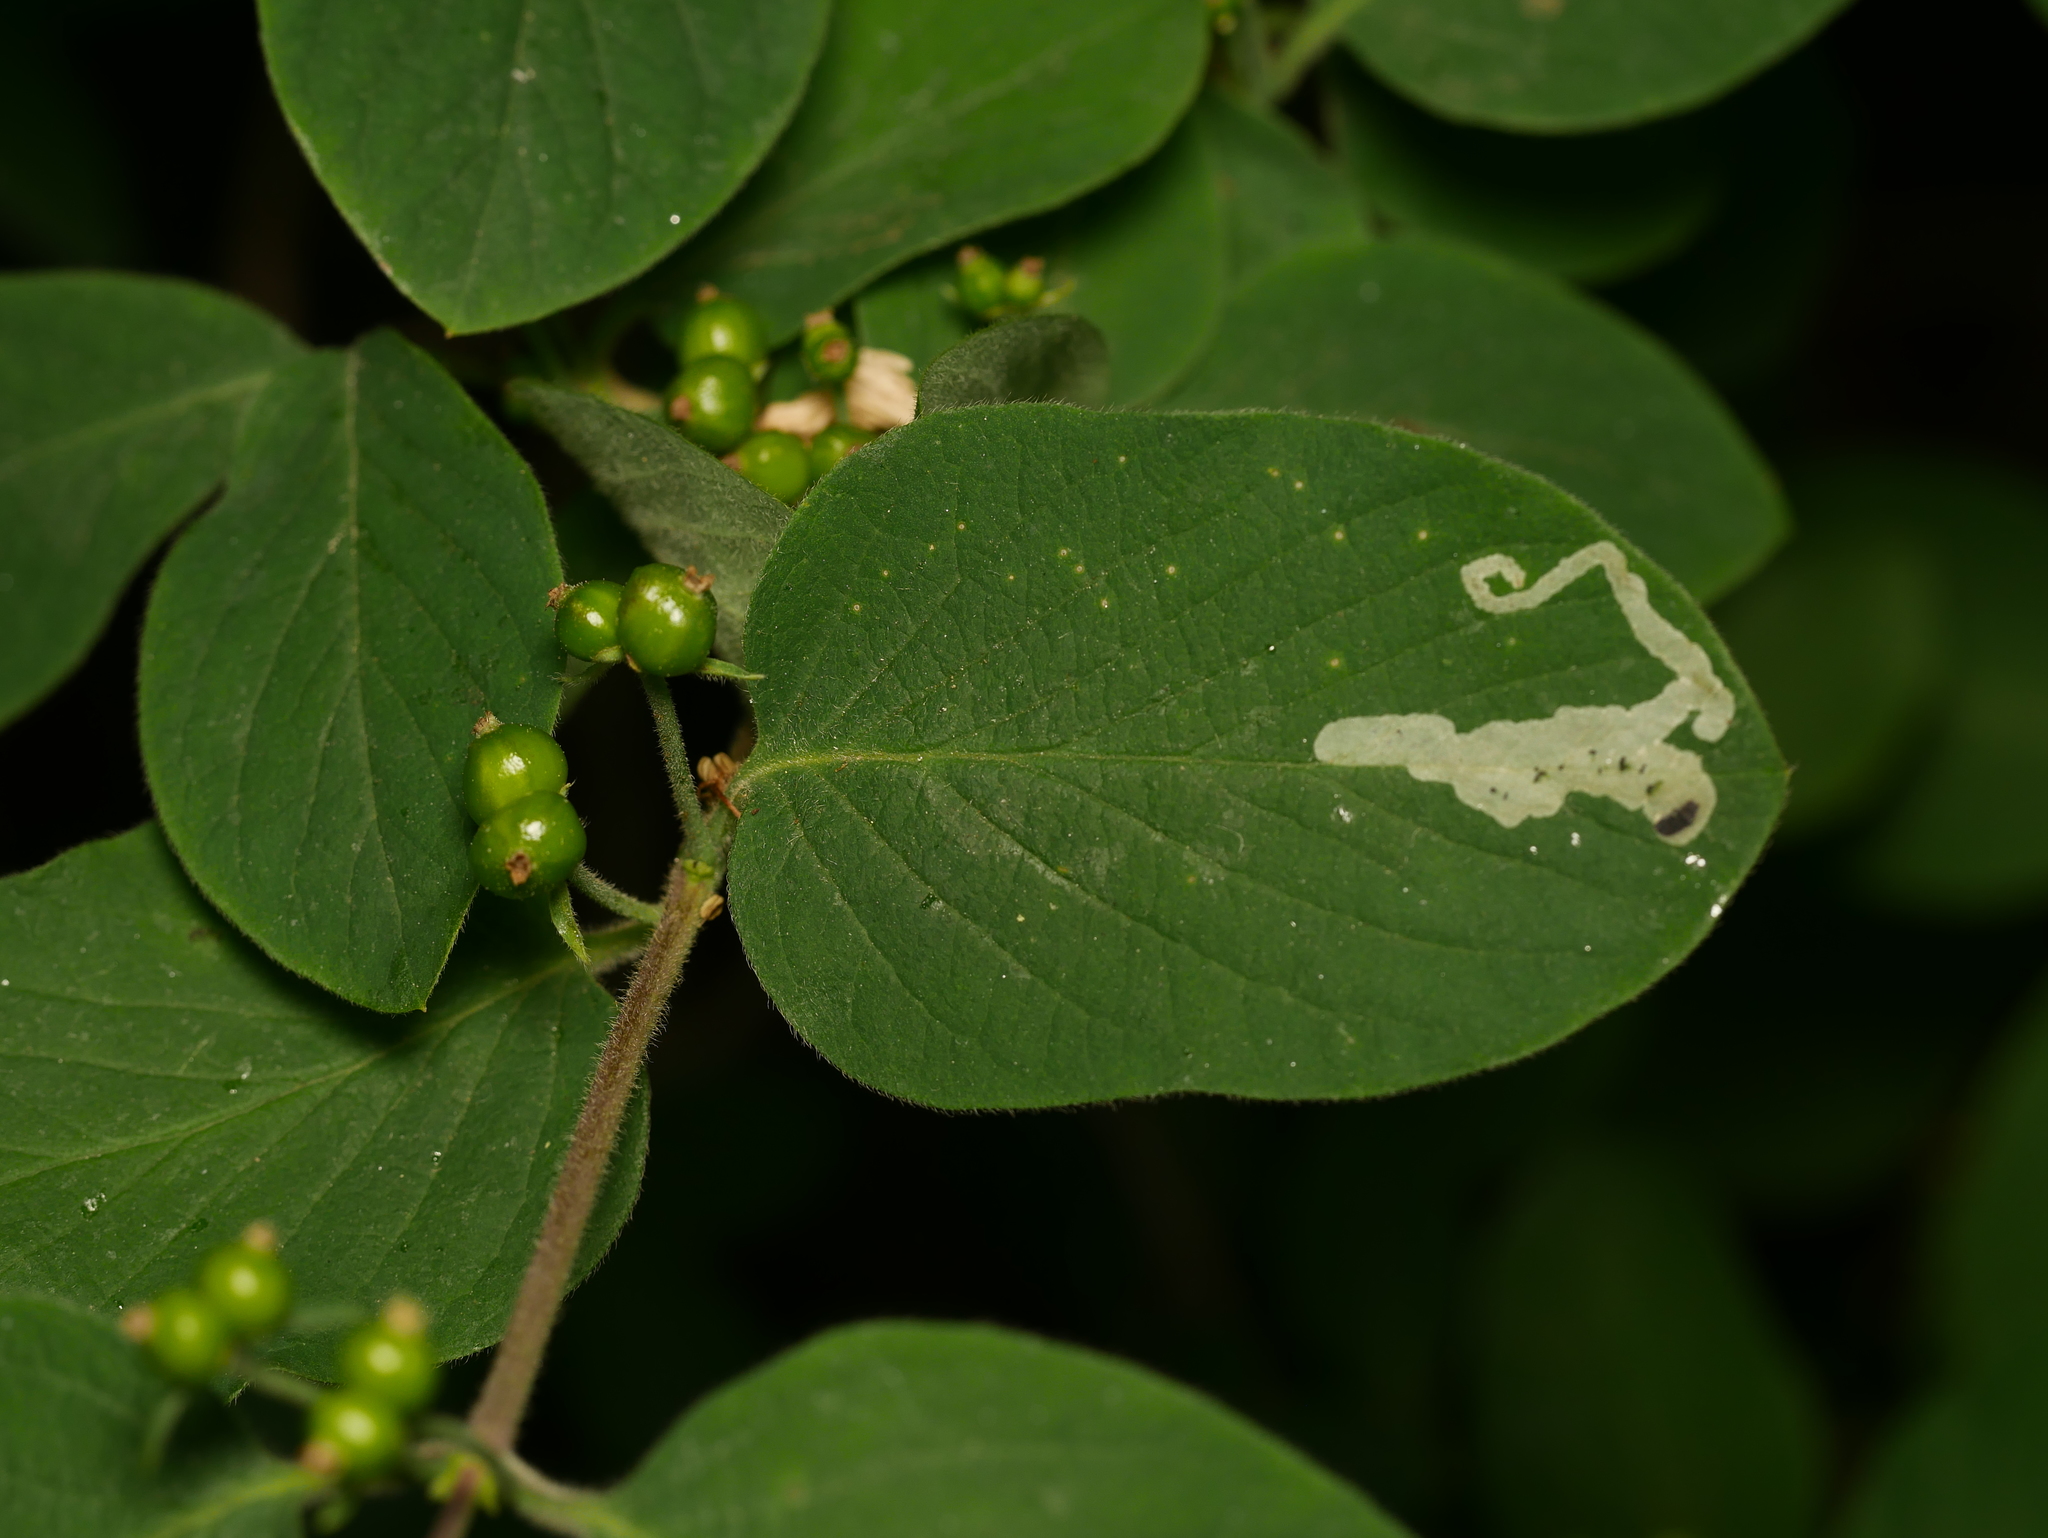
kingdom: Plantae
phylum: Tracheophyta
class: Magnoliopsida
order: Dipsacales
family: Caprifoliaceae
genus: Lonicera
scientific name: Lonicera xylosteum
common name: Fly honeysuckle
